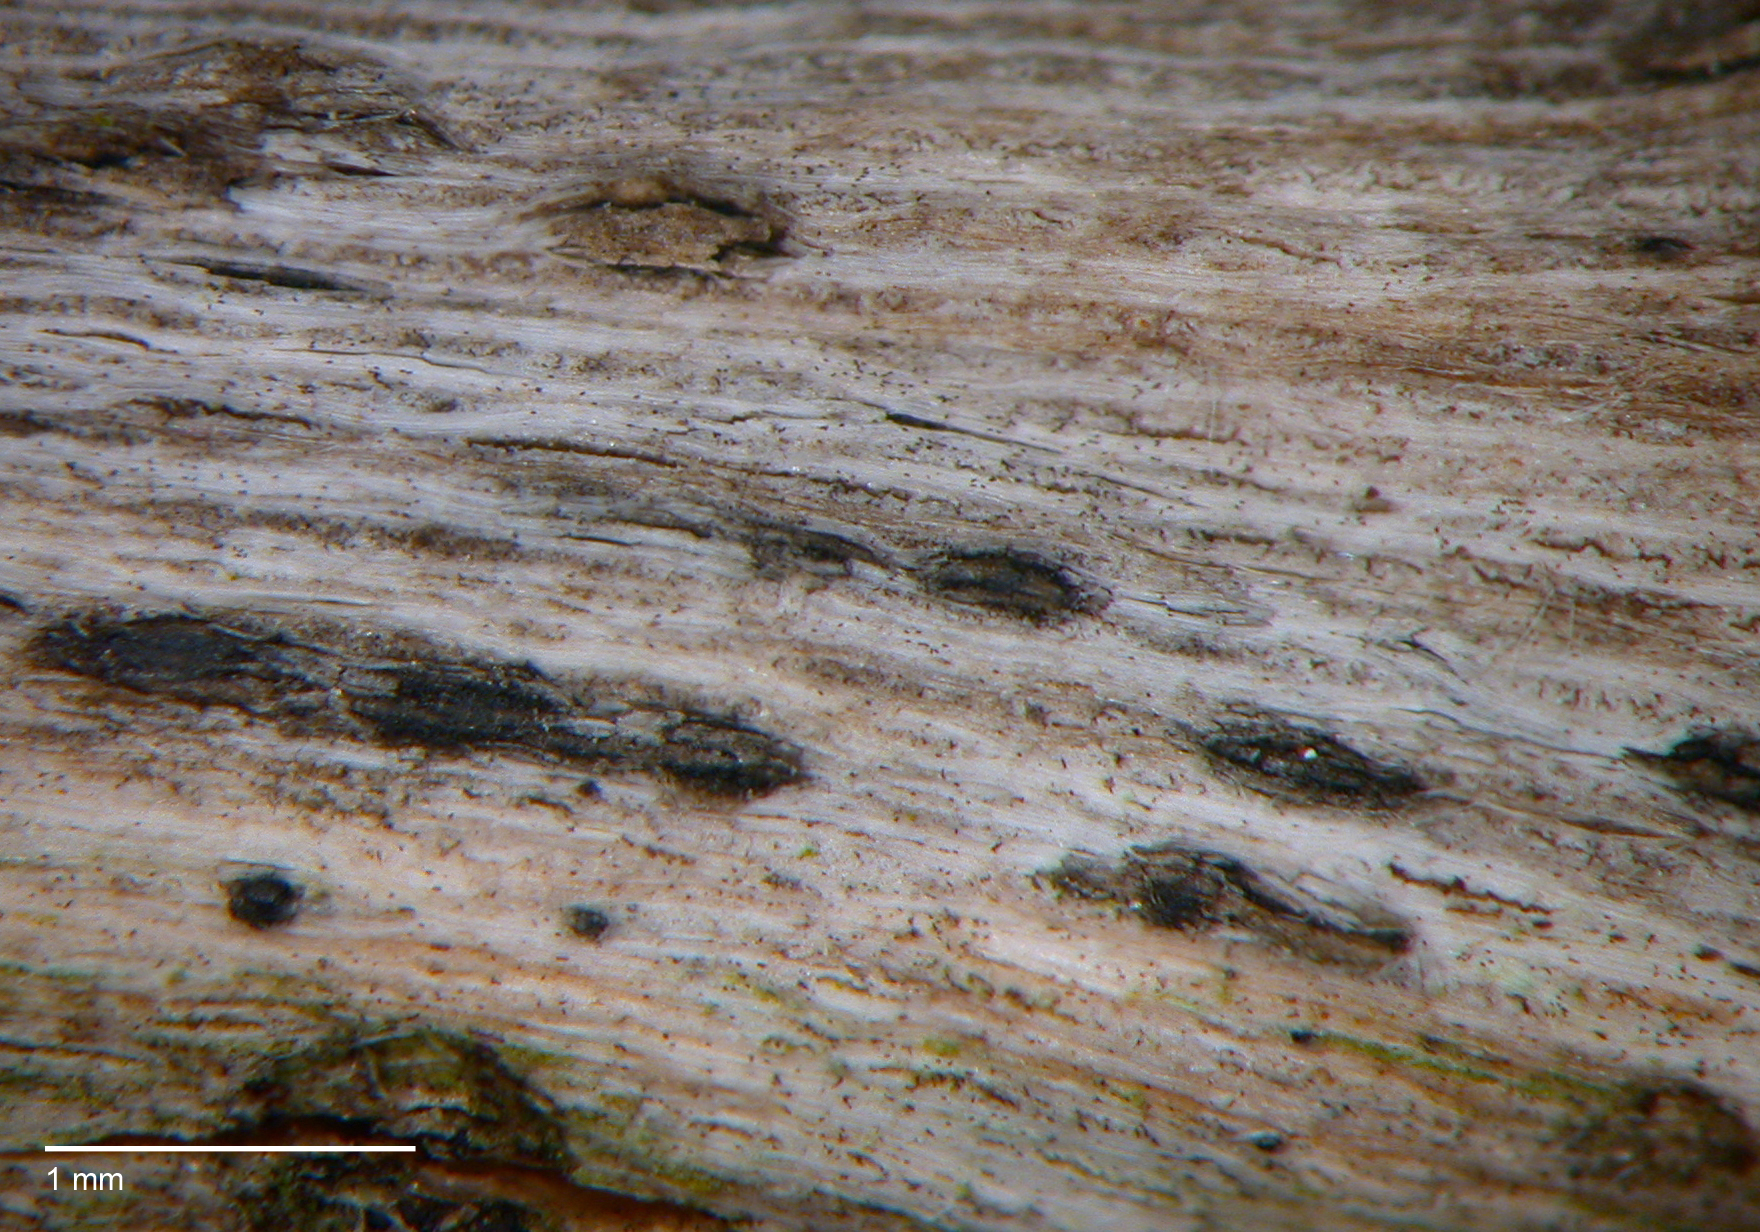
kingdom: Fungi
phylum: Ascomycota
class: Dothideomycetes
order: Botryosphaeriales
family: Botryosphaeriaceae
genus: Dothiorella
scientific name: Dothiorella vidmadera
